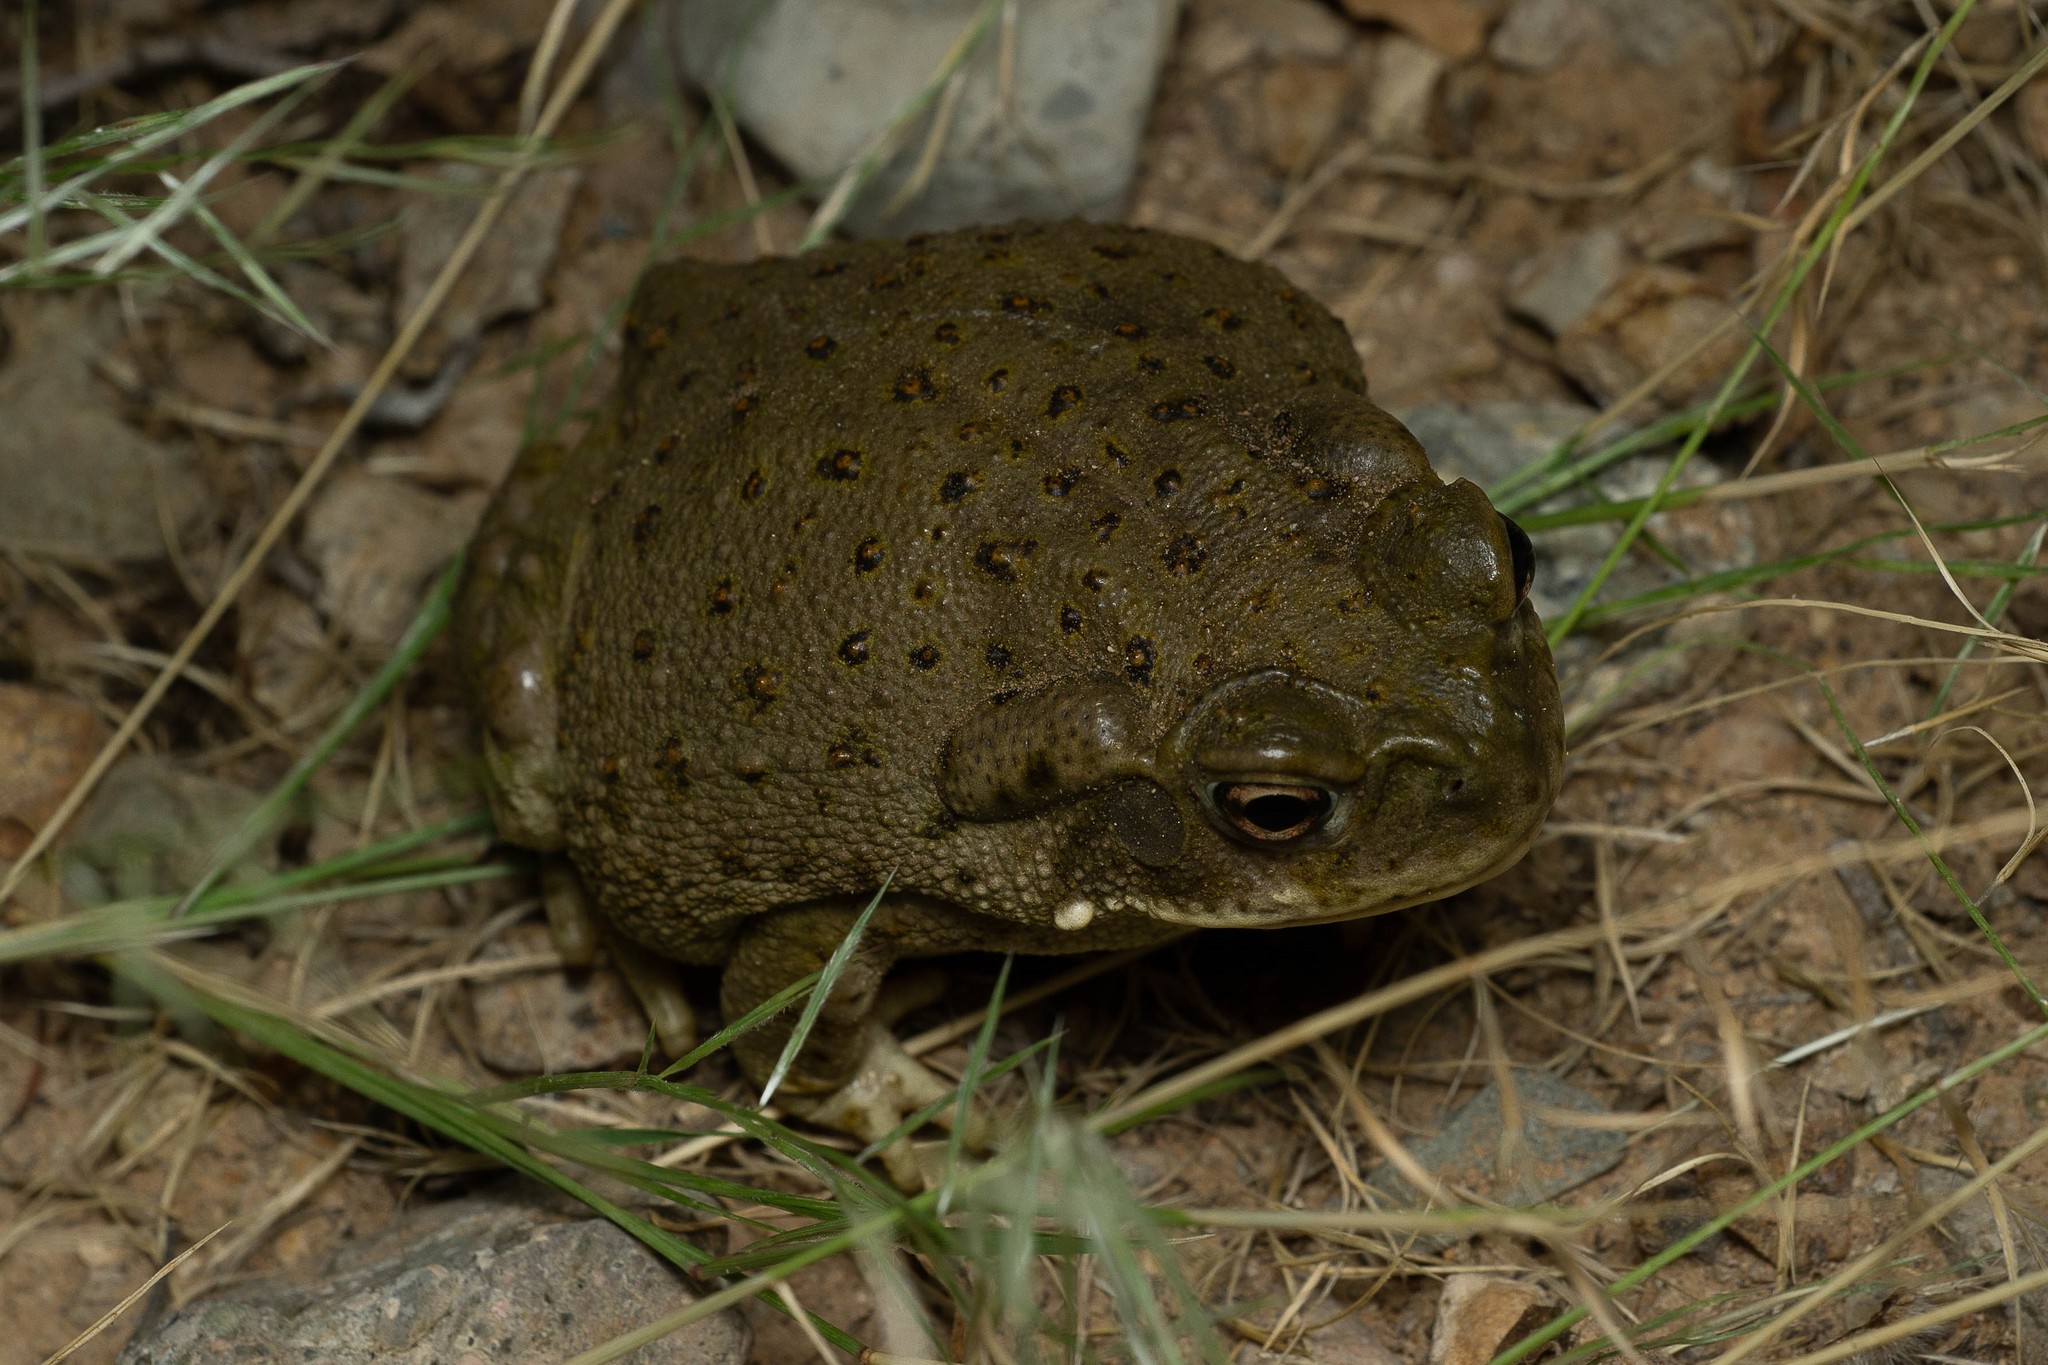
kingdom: Animalia
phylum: Chordata
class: Amphibia
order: Anura
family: Bufonidae
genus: Incilius
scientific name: Incilius alvarius
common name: Sonoran desert toad
